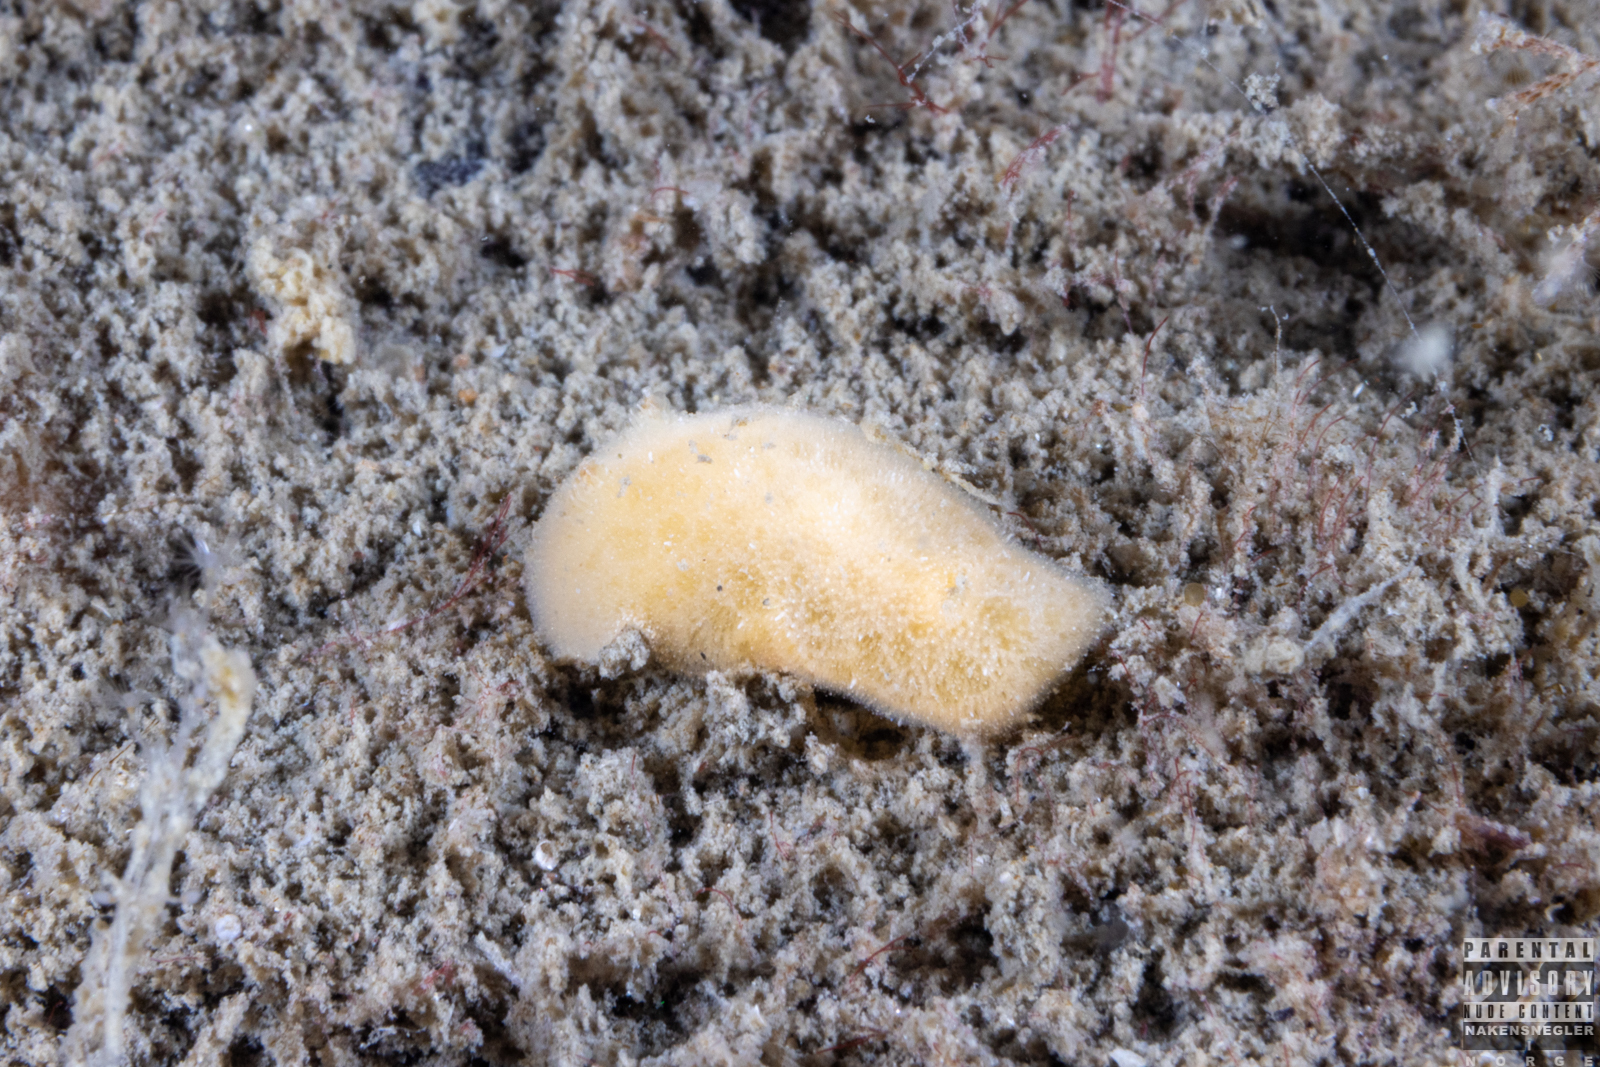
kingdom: Animalia
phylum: Mollusca
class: Gastropoda
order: Nudibranchia
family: Discodorididae
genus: Jorunna
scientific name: Jorunna tomentosa
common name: Grey sea slug
